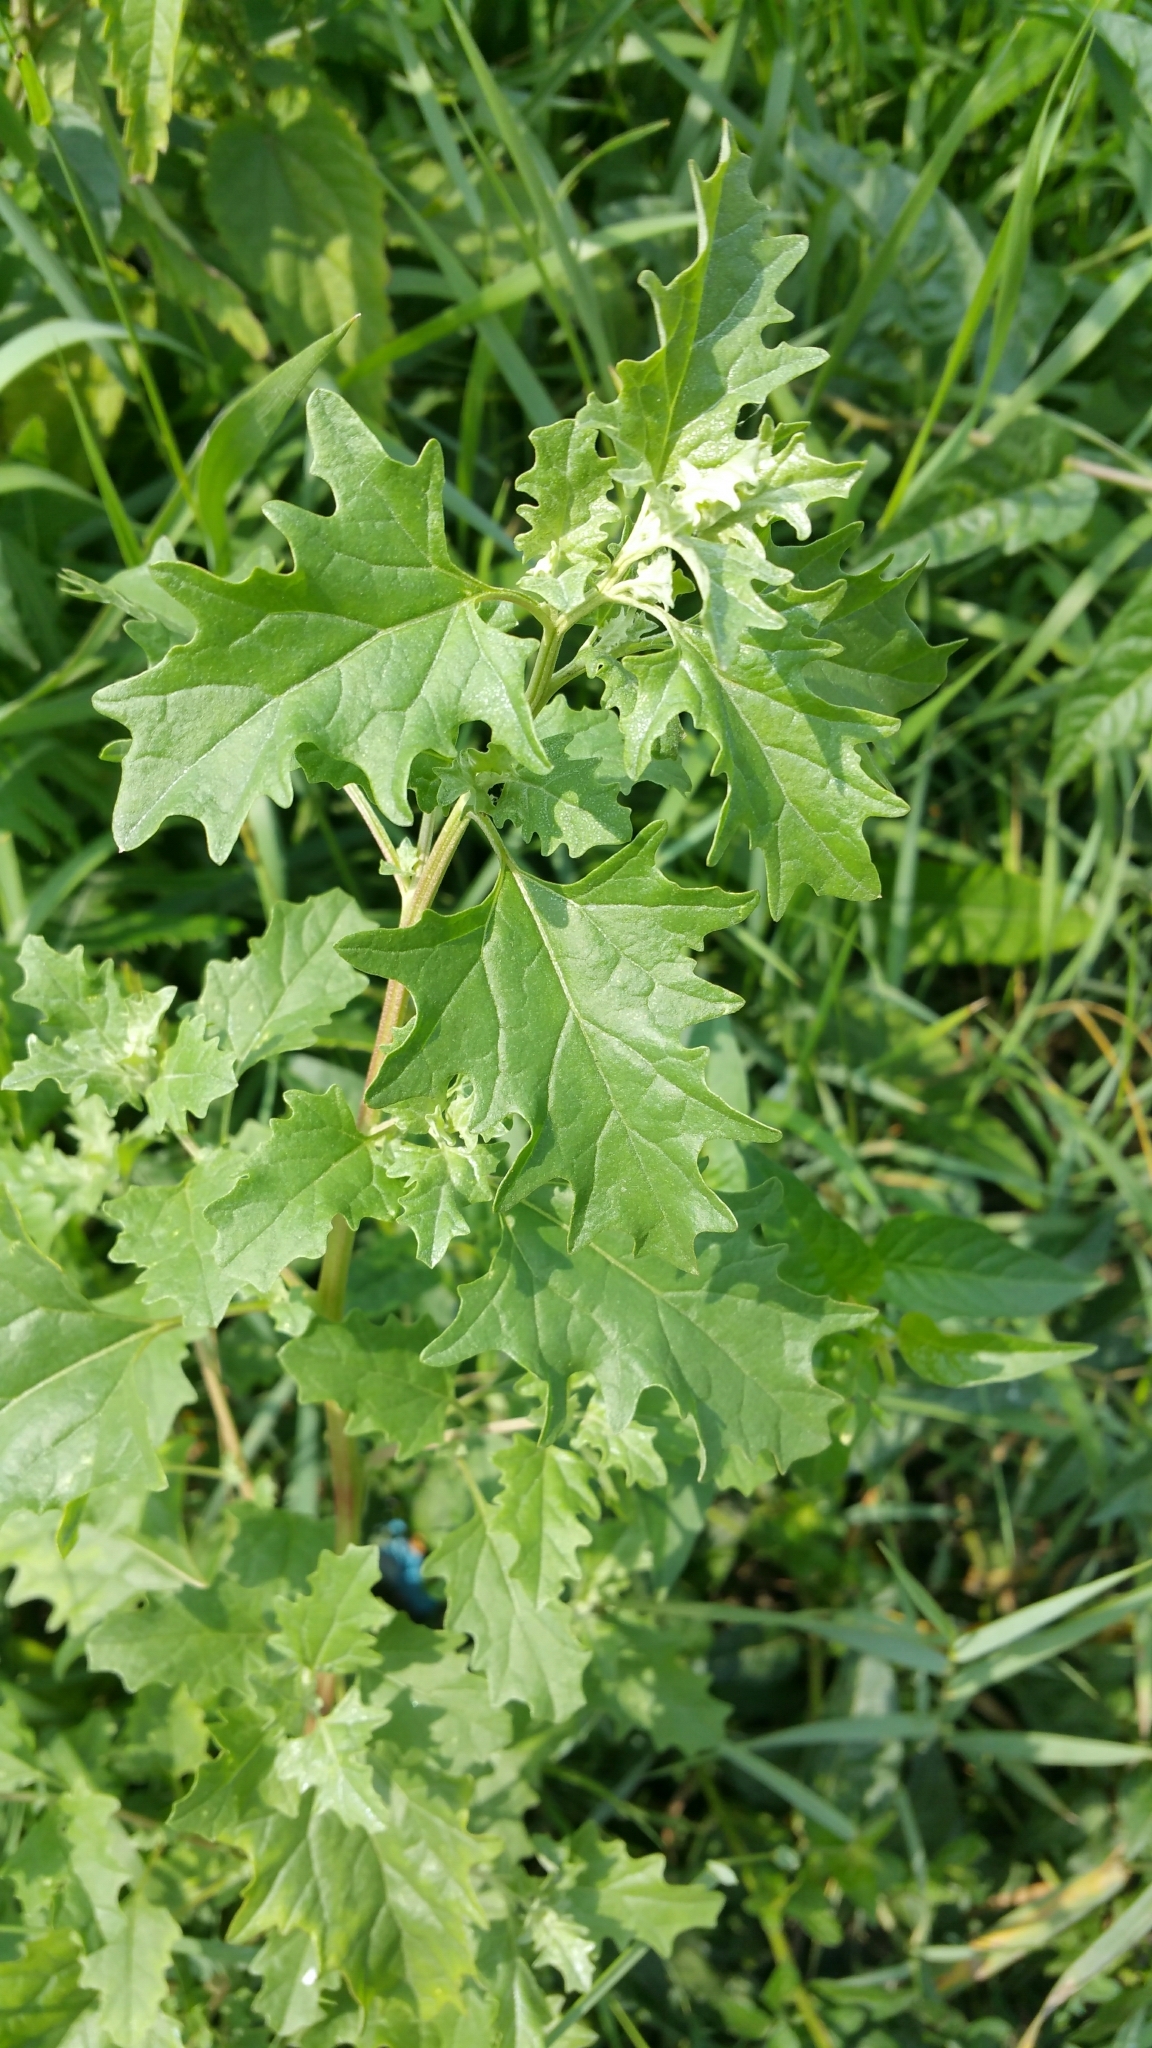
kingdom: Plantae
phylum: Tracheophyta
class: Magnoliopsida
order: Caryophyllales
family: Amaranthaceae
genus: Atriplex
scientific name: Atriplex tatarica
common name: Tatarian orache
